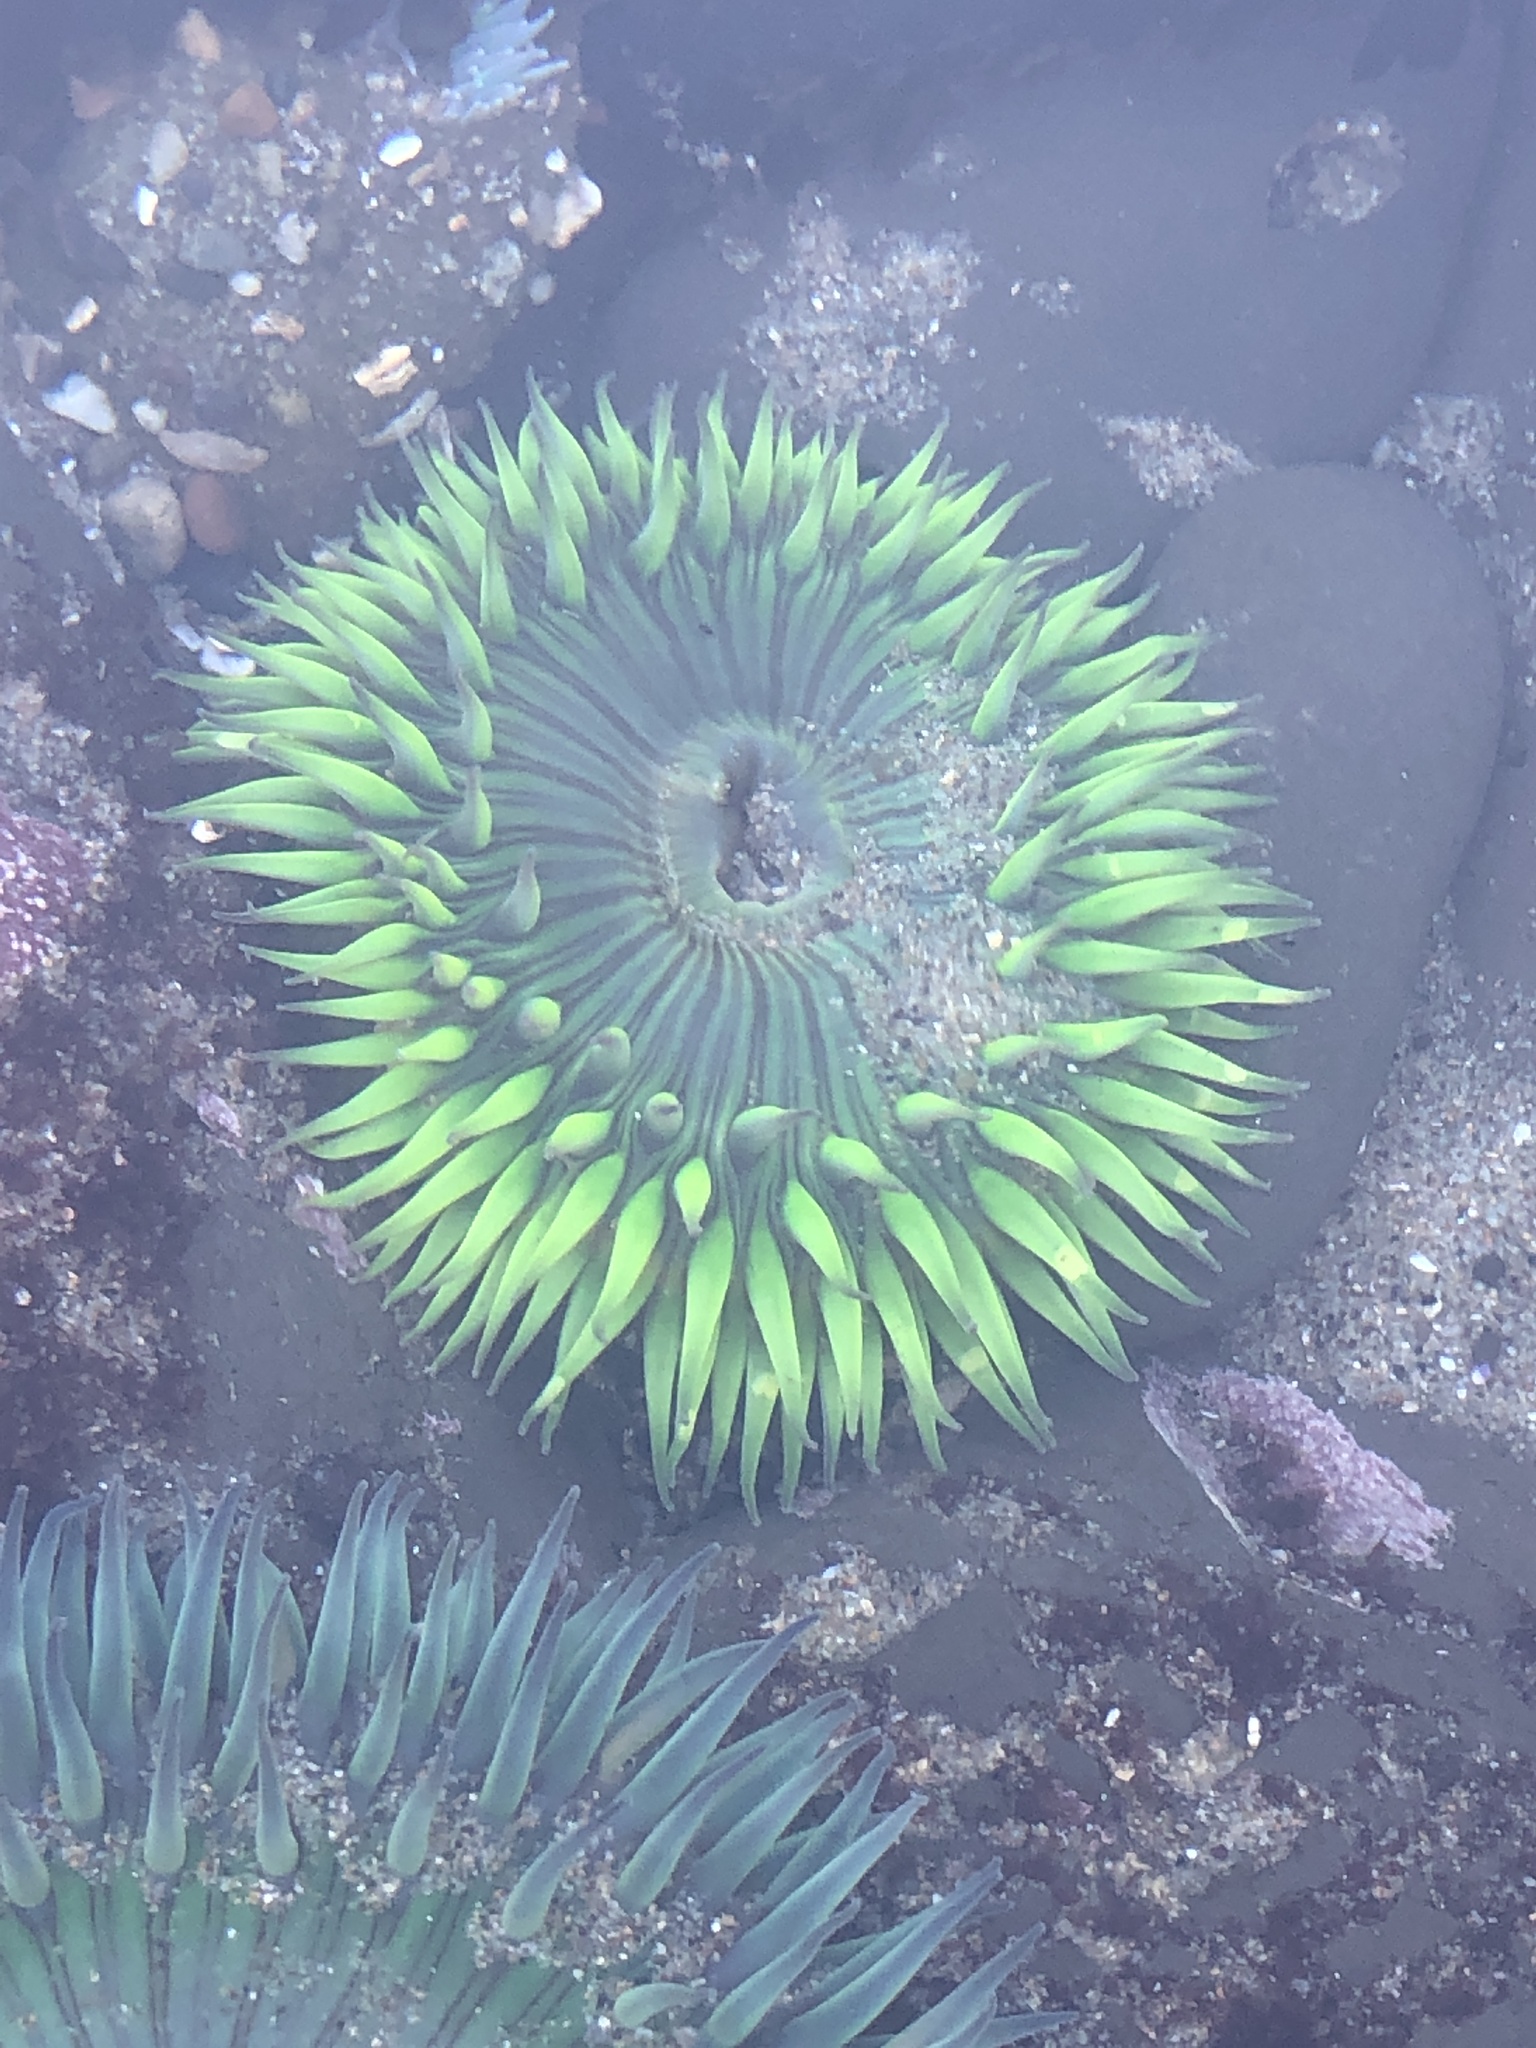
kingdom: Animalia
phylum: Cnidaria
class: Anthozoa
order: Actiniaria
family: Actiniidae
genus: Anthopleura
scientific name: Anthopleura sola
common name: Sun anemone
